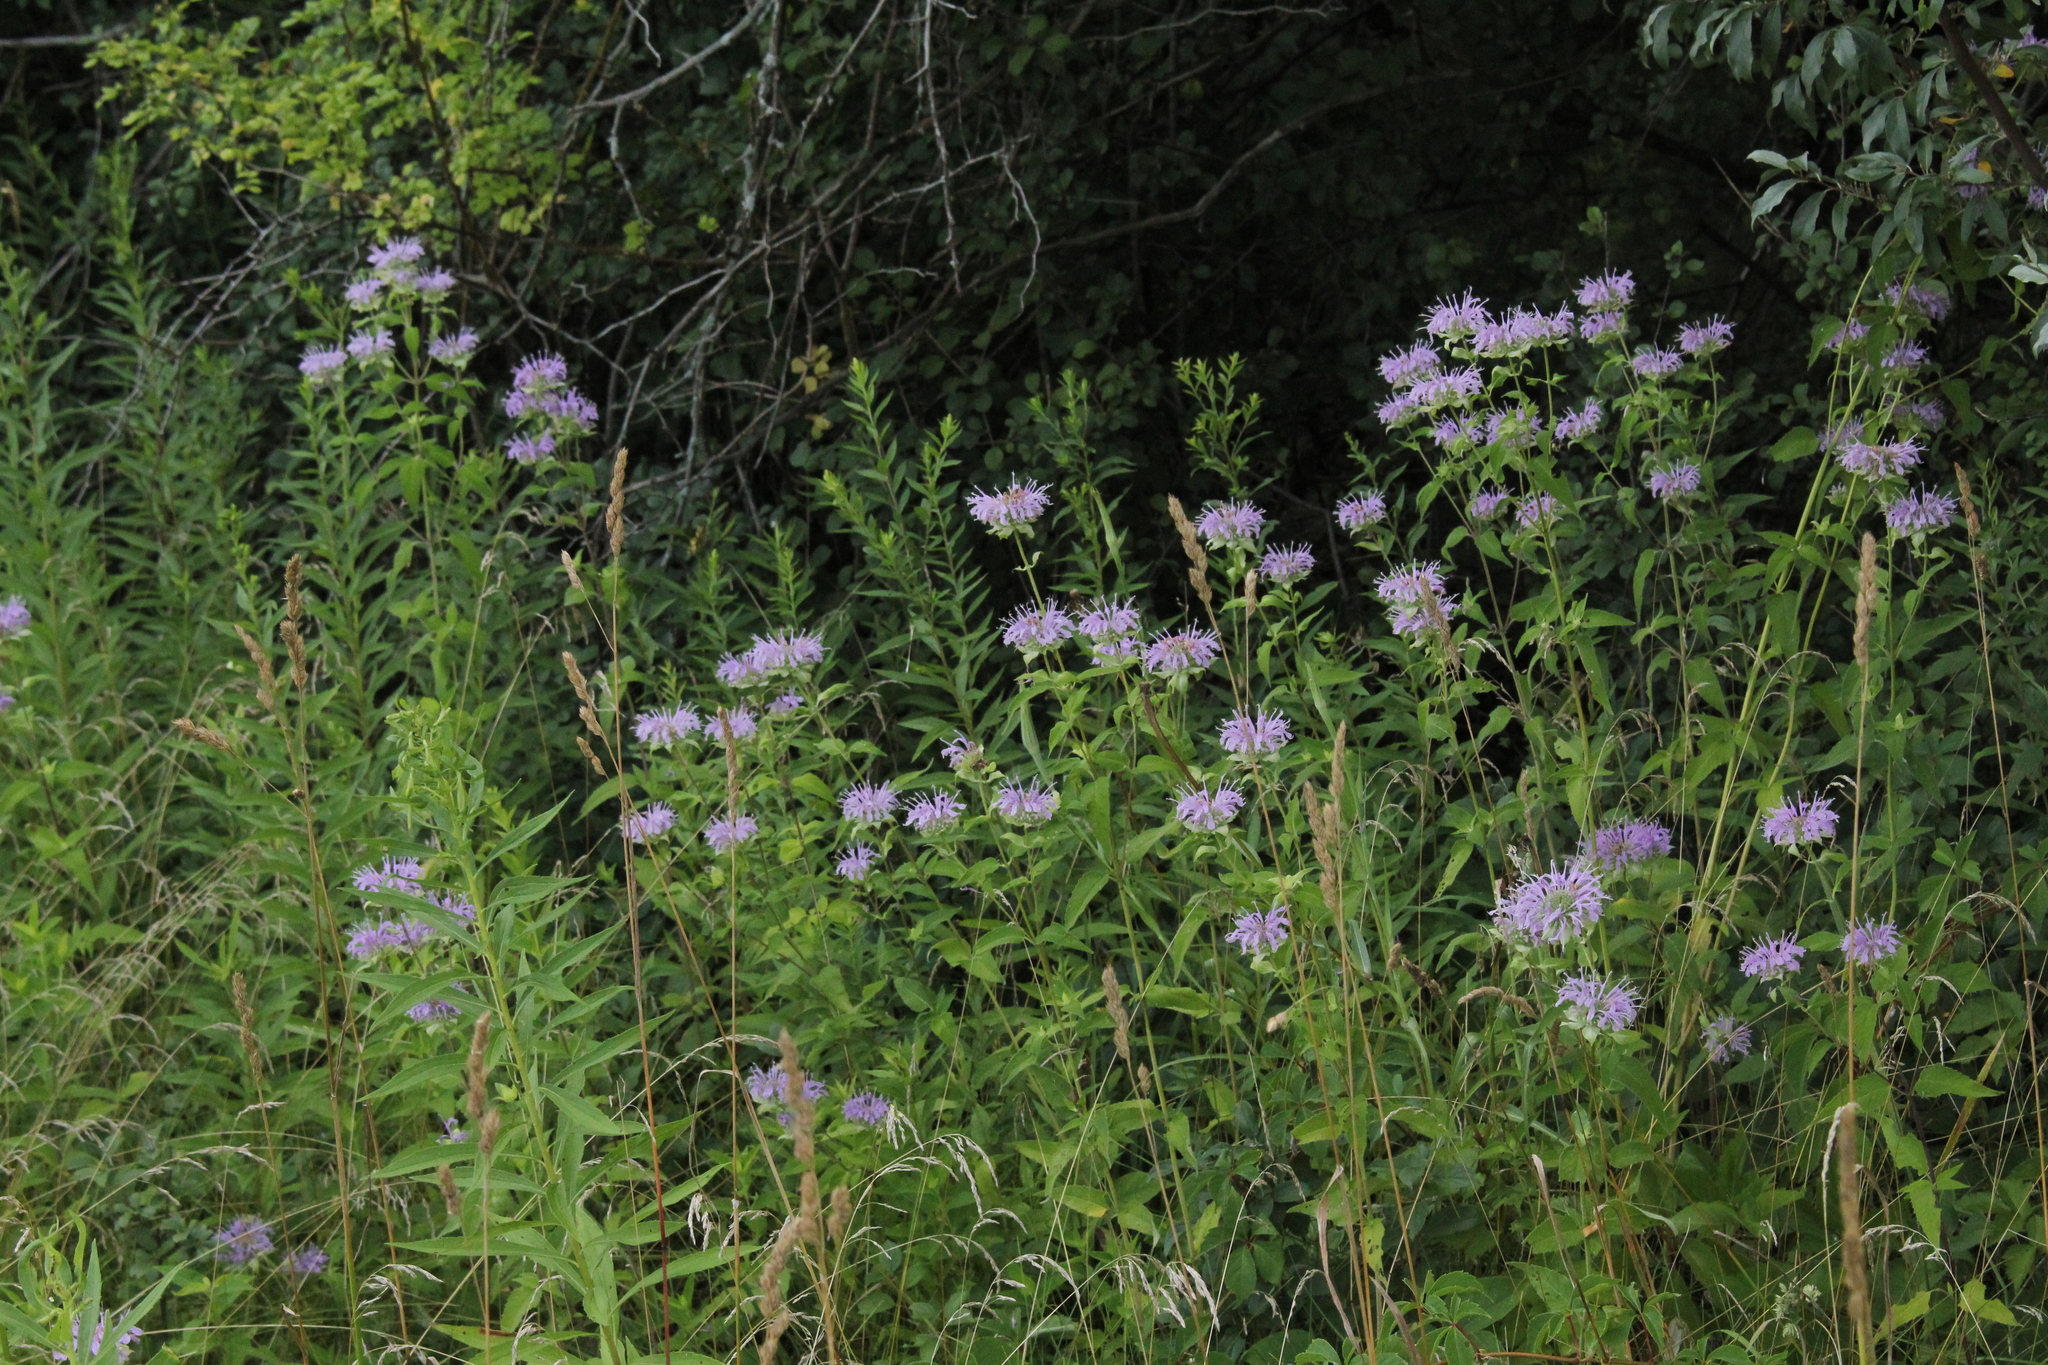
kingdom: Plantae
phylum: Tracheophyta
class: Magnoliopsida
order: Lamiales
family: Lamiaceae
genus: Monarda
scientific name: Monarda fistulosa
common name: Purple beebalm
